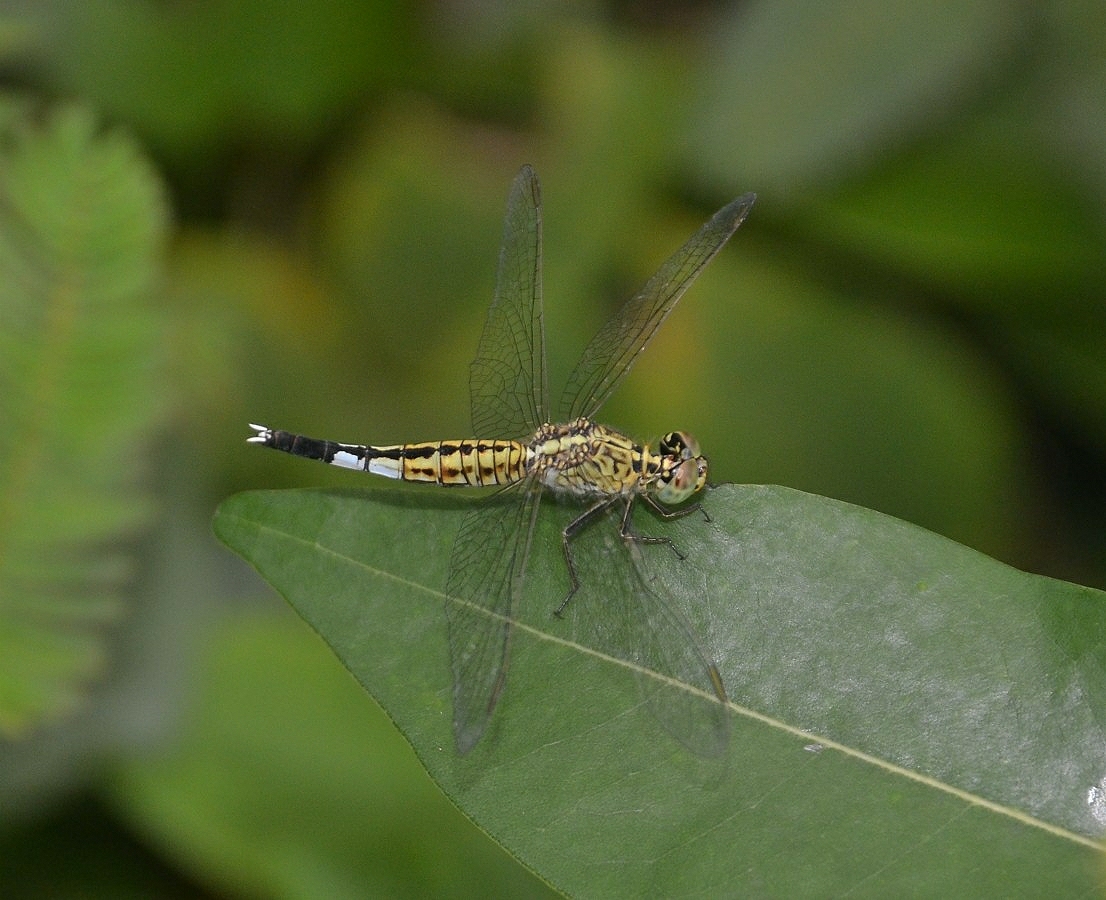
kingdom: Animalia
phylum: Arthropoda
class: Insecta
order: Odonata
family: Libellulidae
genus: Acisoma
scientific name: Acisoma panorpoides
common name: Asian pintail
